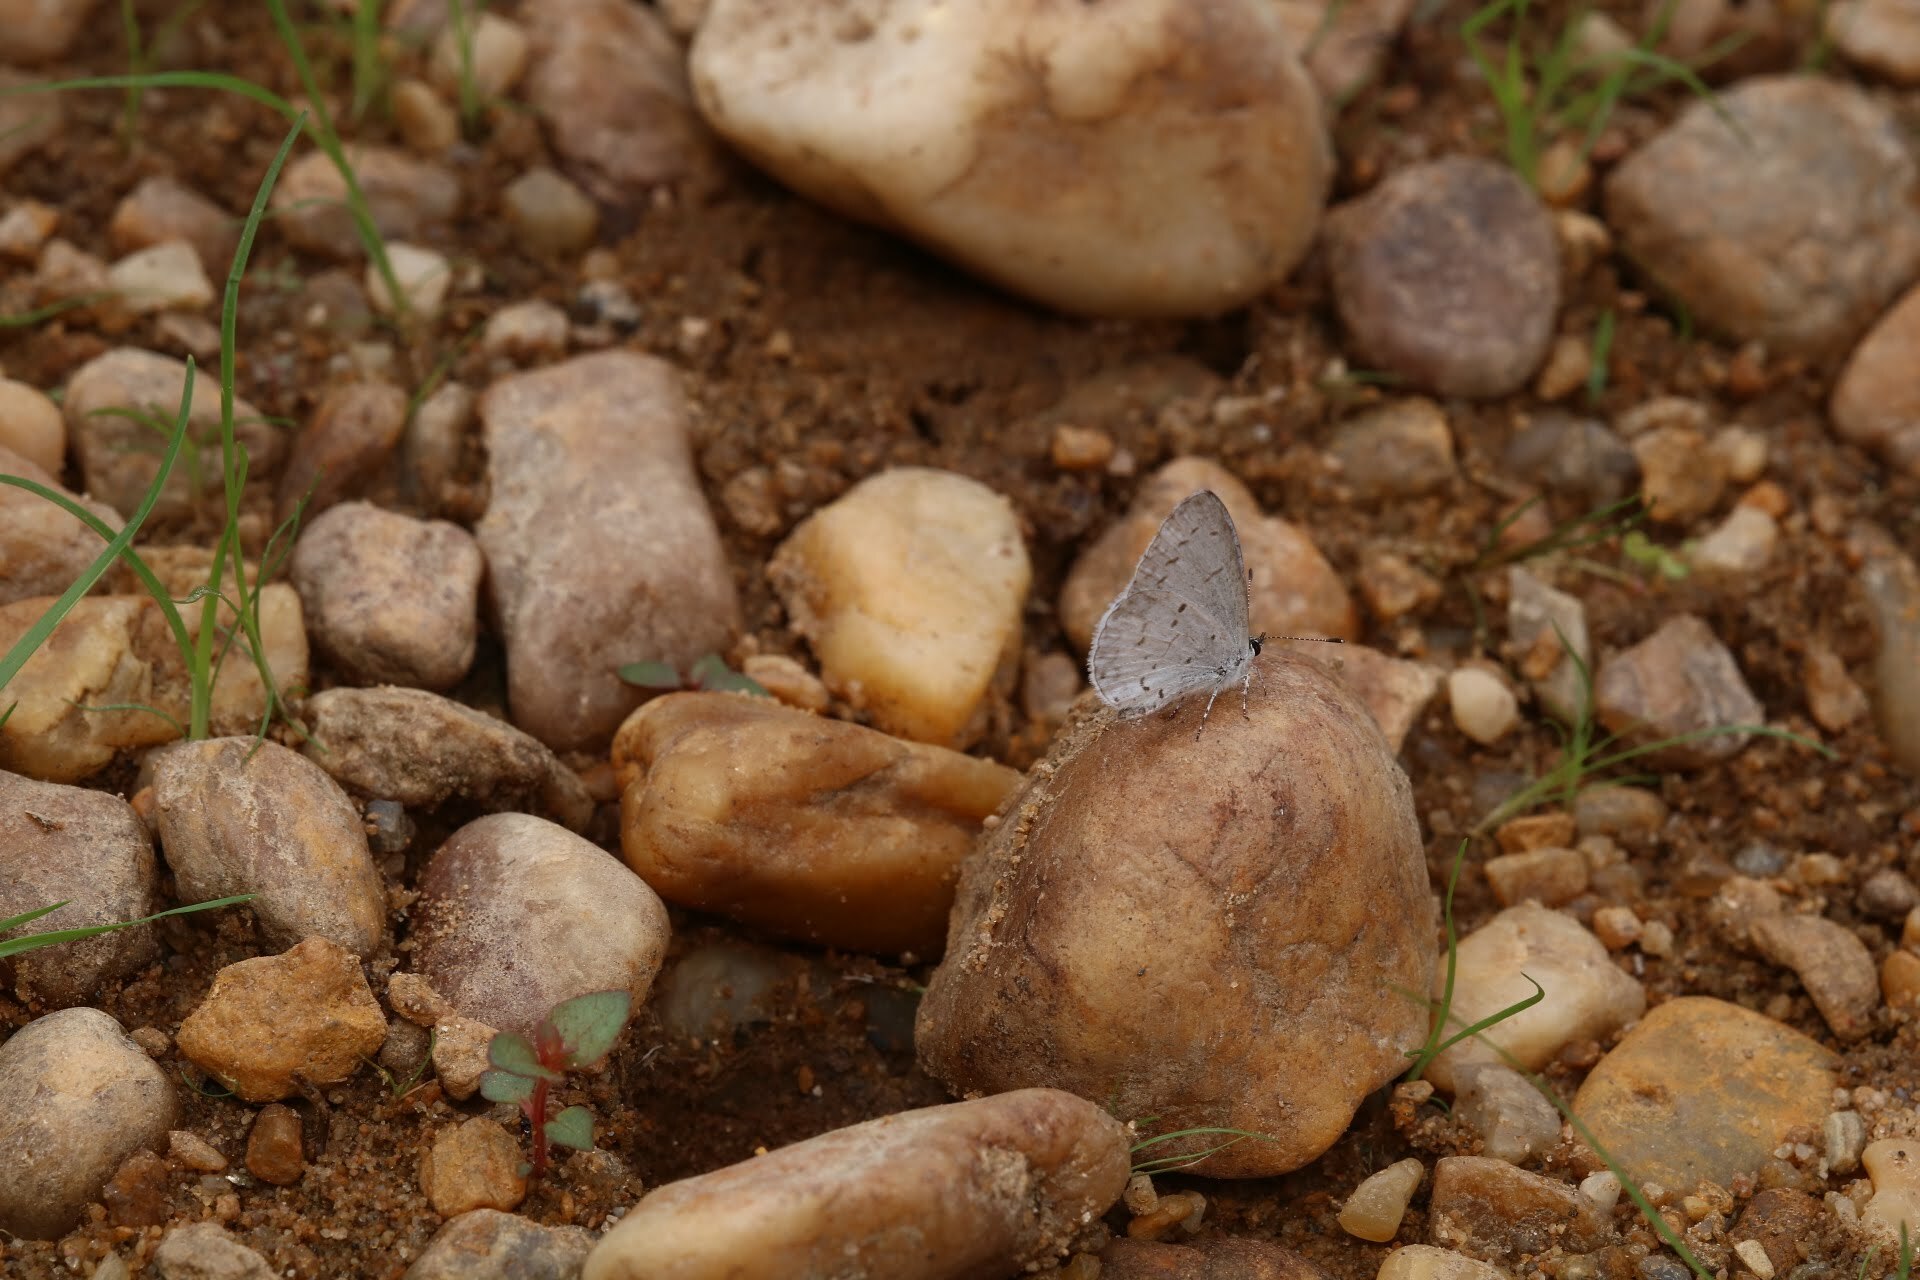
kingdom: Animalia
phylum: Arthropoda
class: Insecta
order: Lepidoptera
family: Lycaenidae
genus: Cyaniris
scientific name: Cyaniris neglecta
